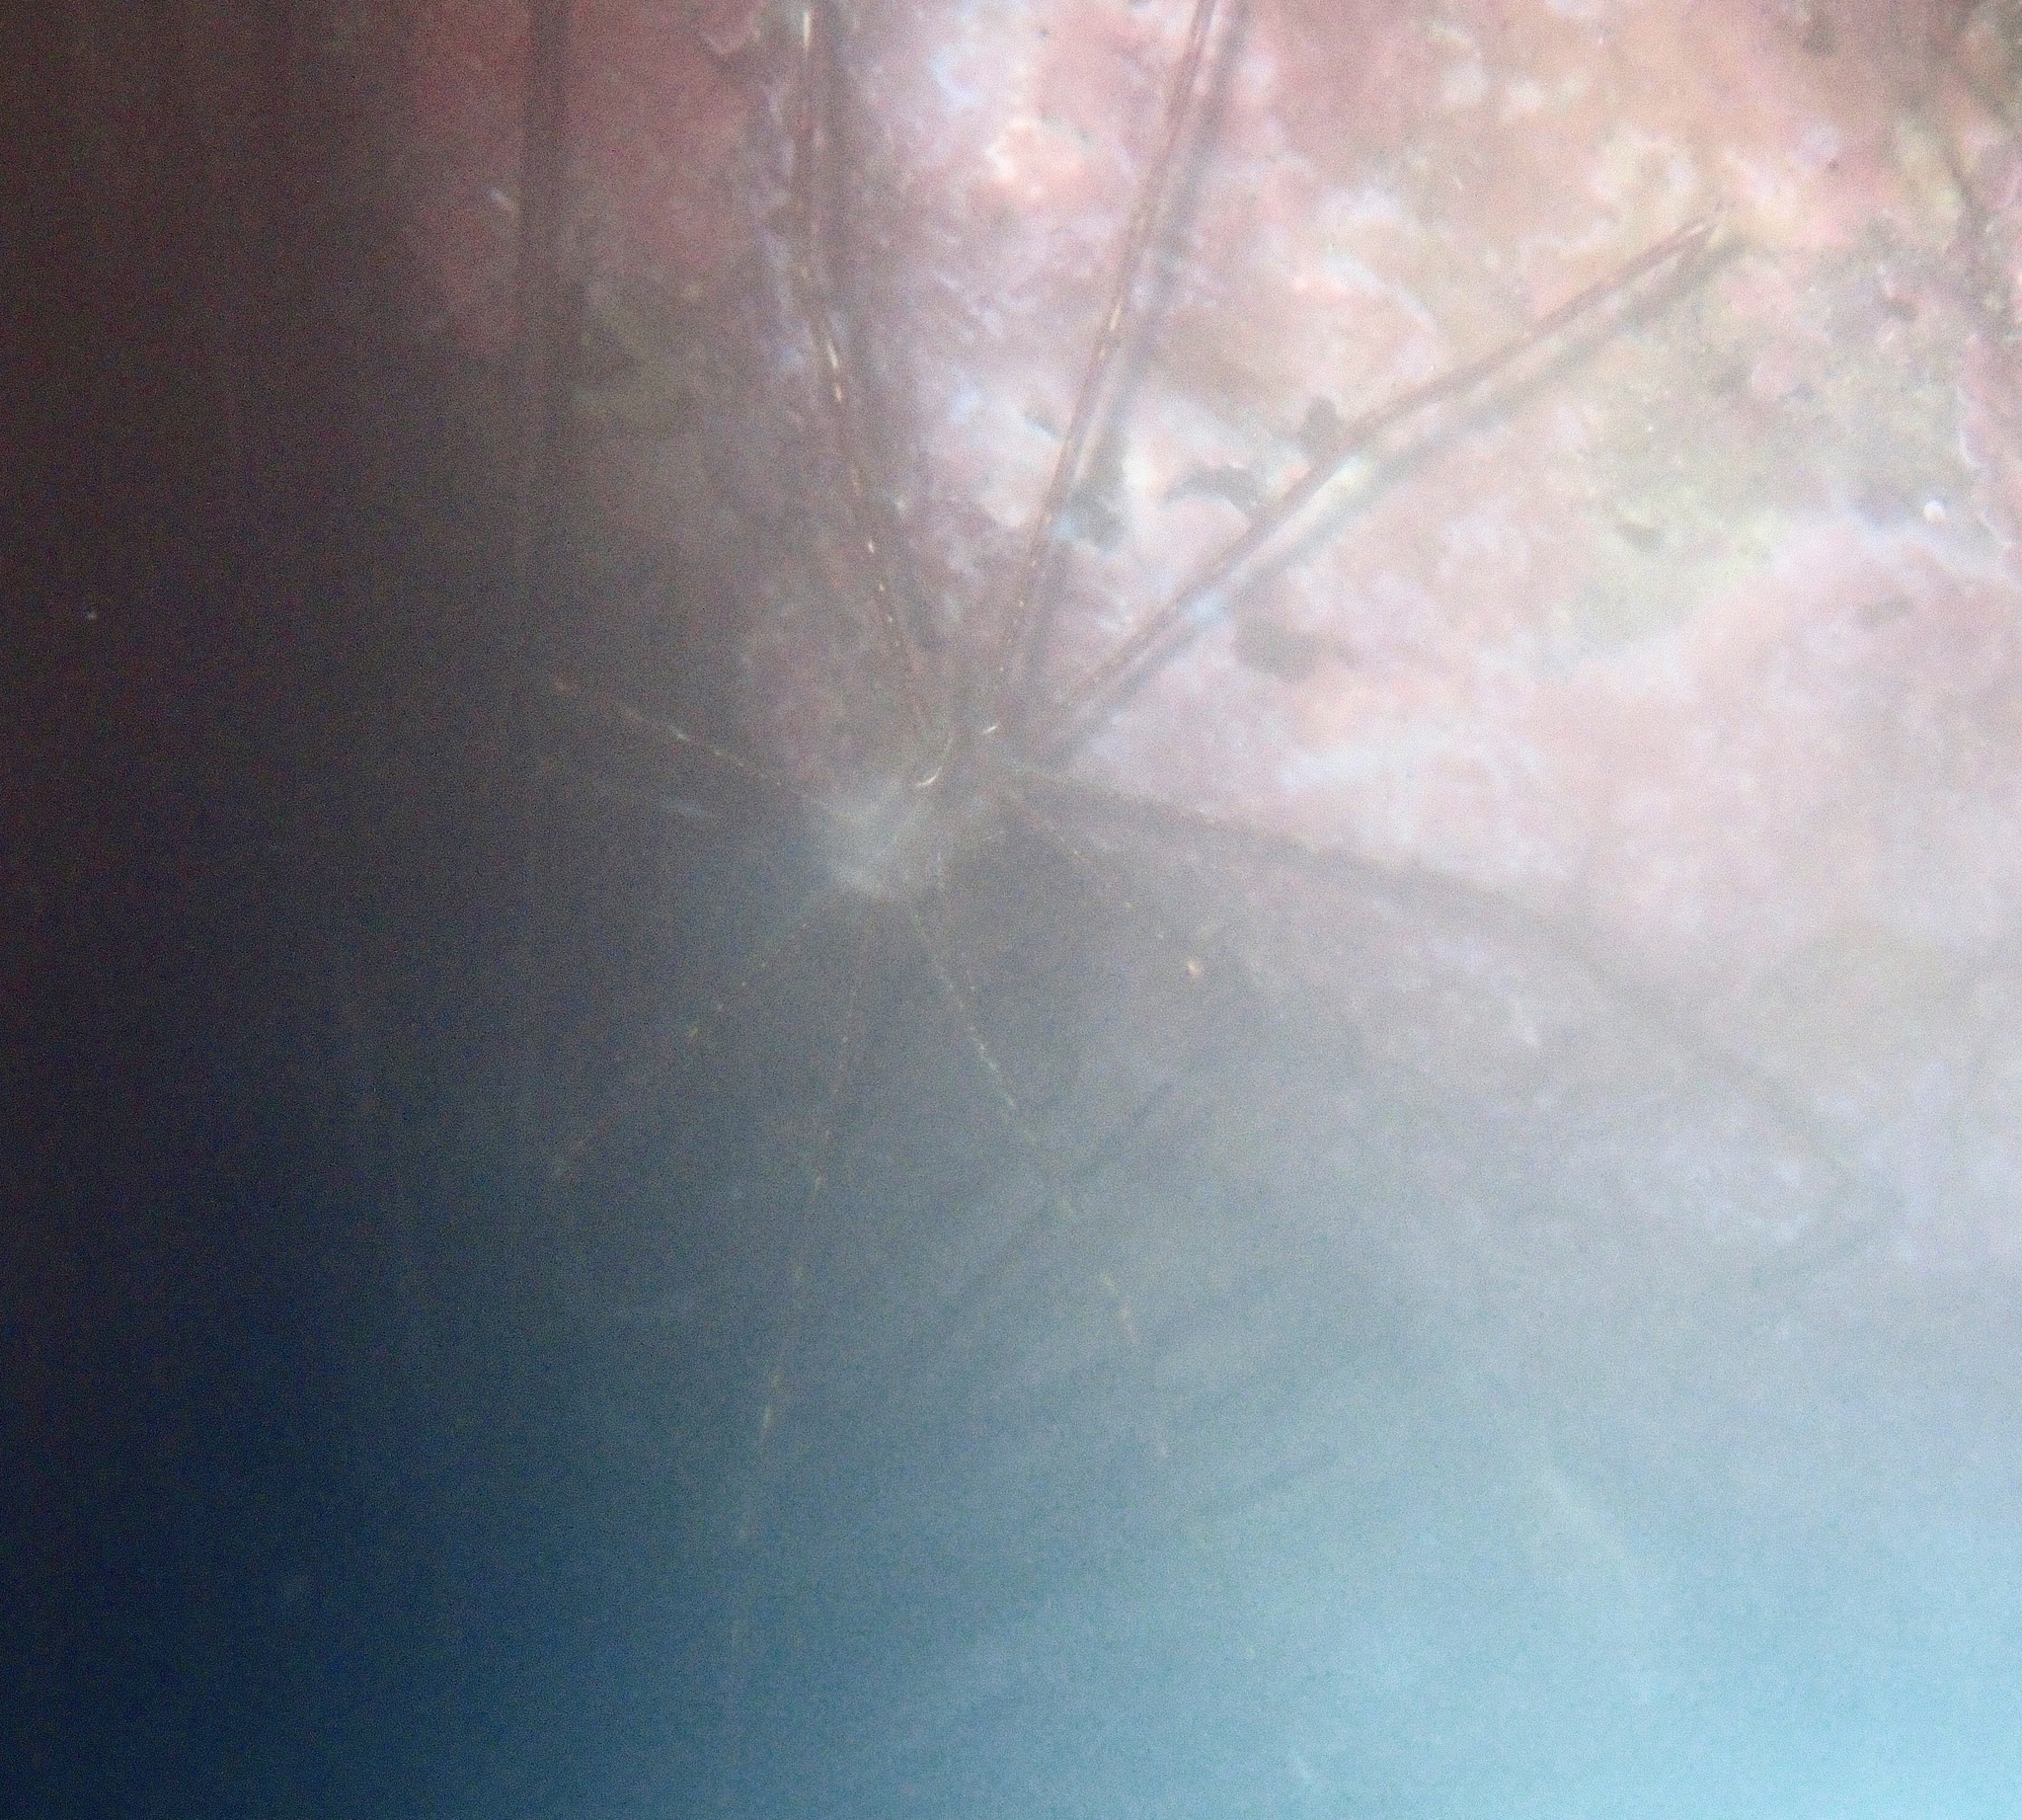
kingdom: Animalia
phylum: Arthropoda
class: Malacostraca
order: Decapoda
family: Inachoididae
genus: Stenorhynchus
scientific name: Stenorhynchus lanceolatus
